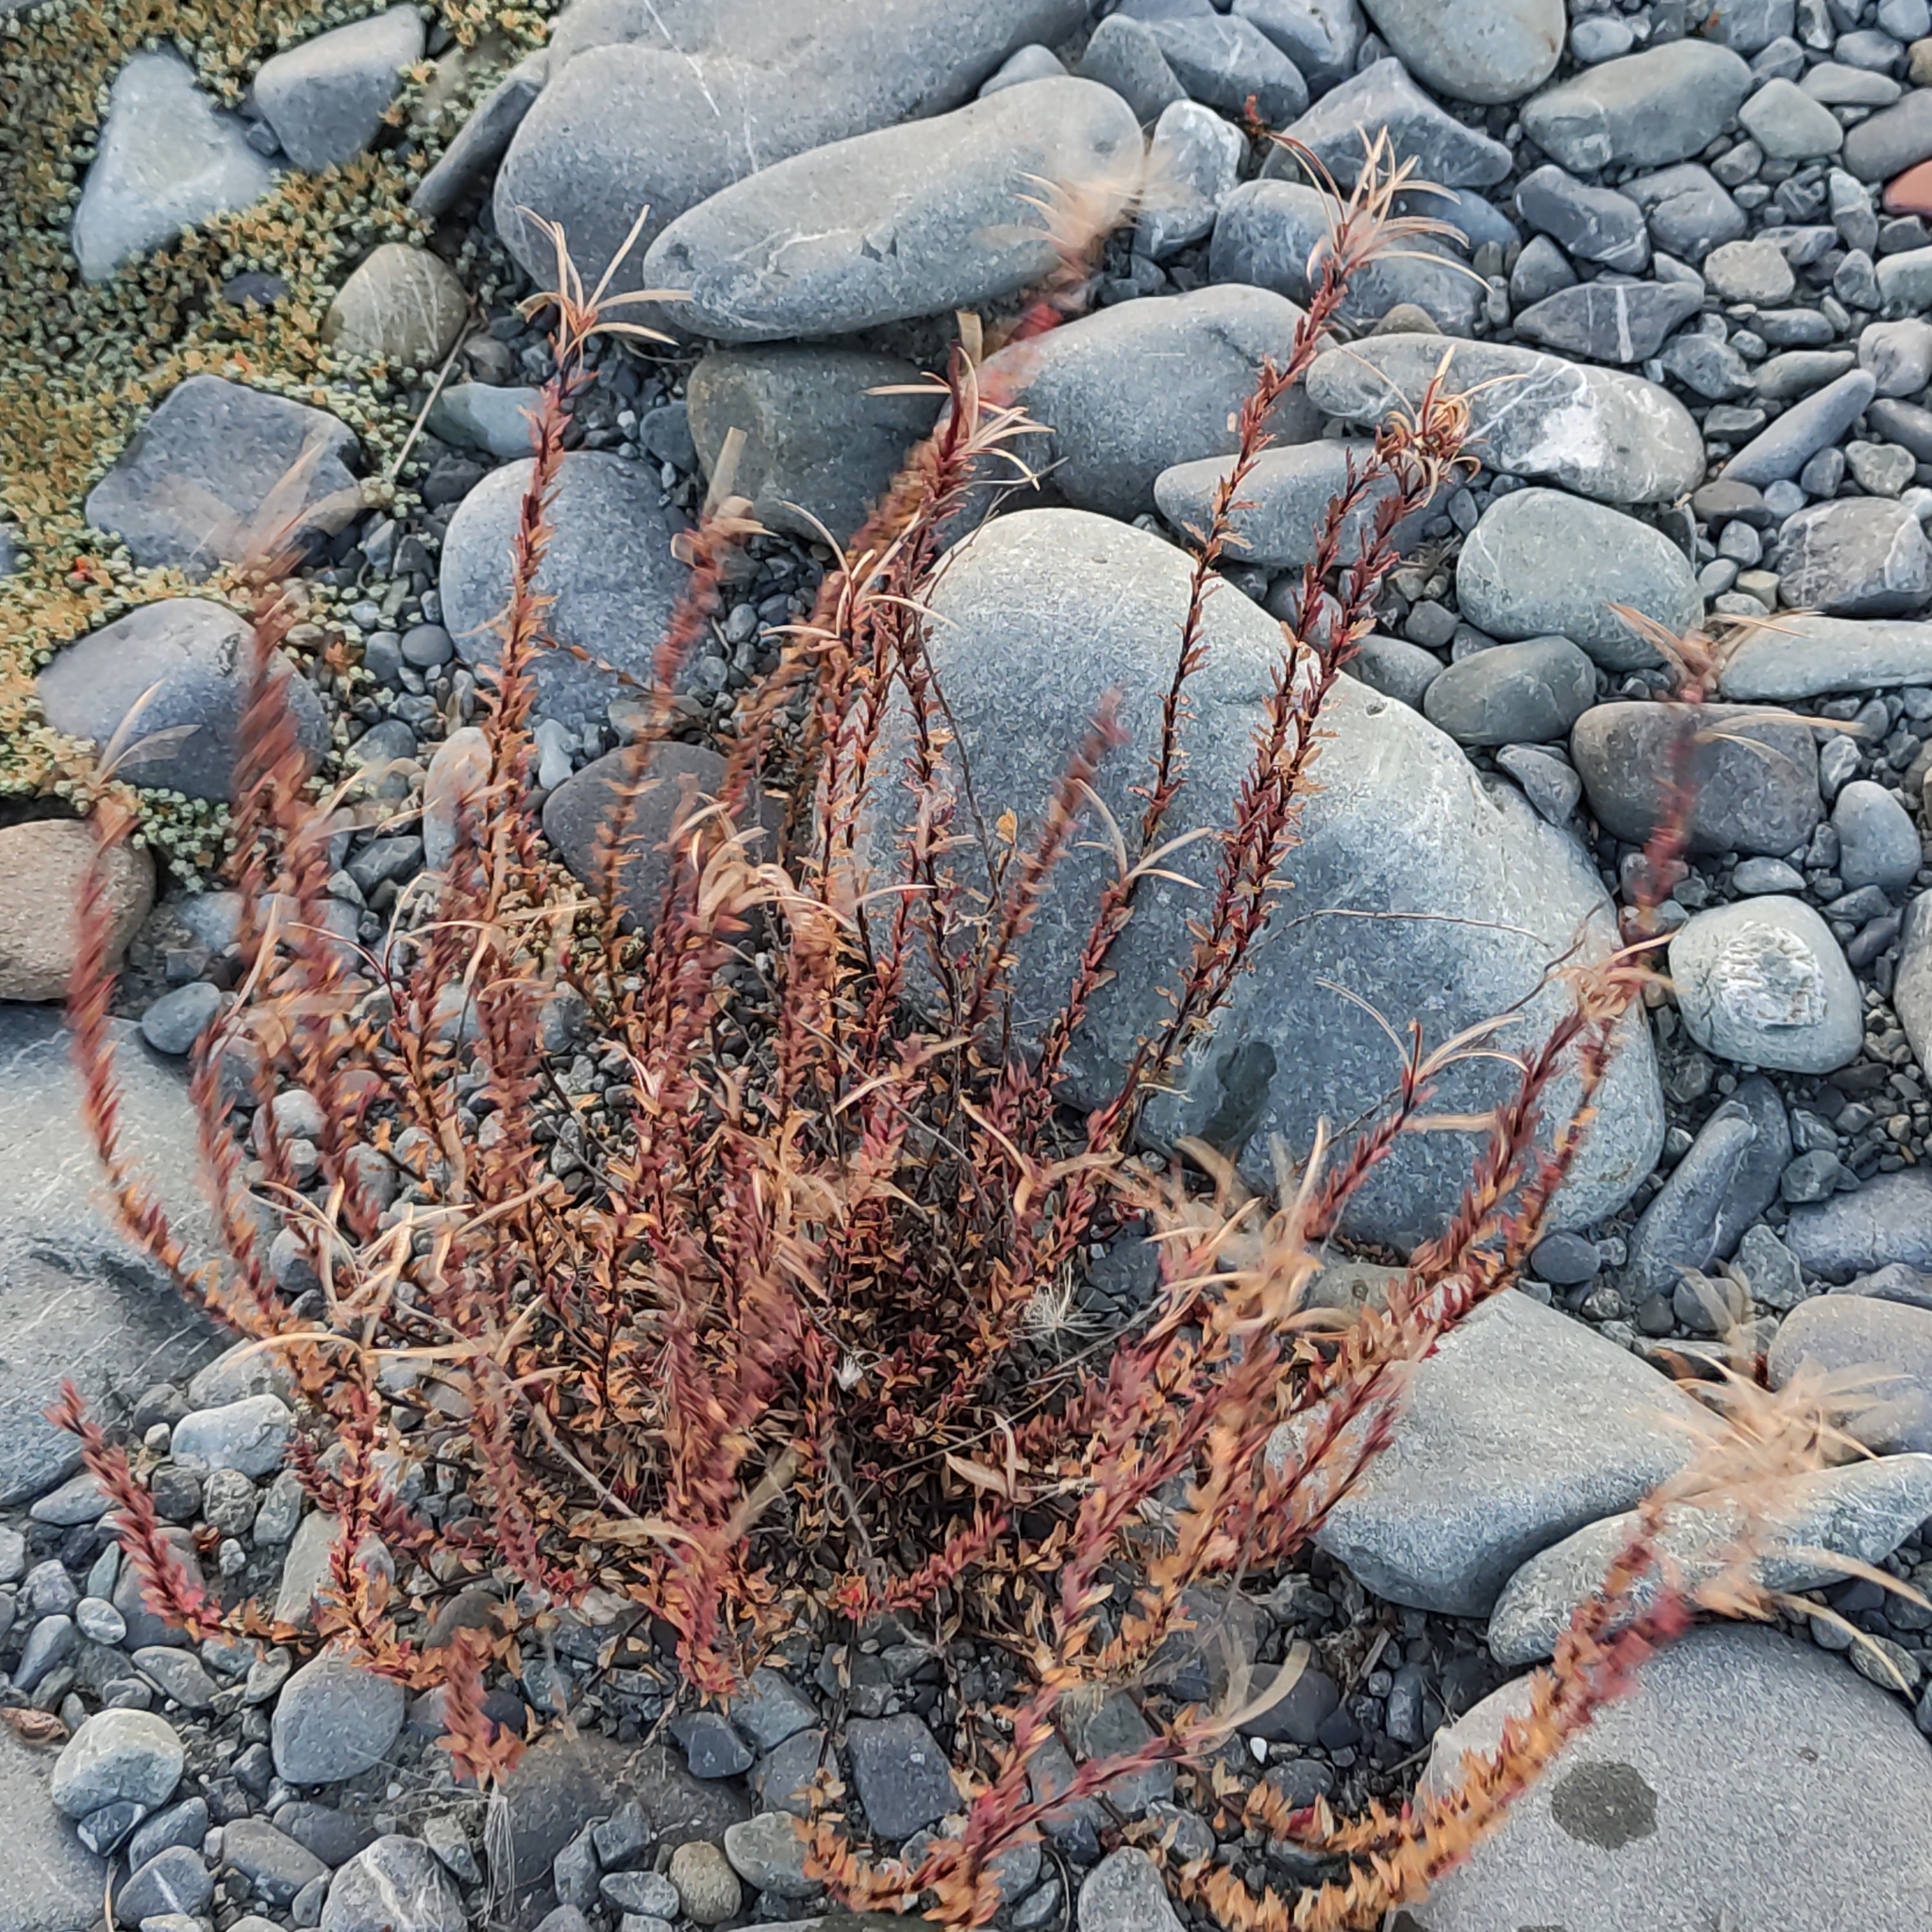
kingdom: Plantae
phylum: Tracheophyta
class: Magnoliopsida
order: Myrtales
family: Onagraceae
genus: Epilobium
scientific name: Epilobium melanocaulon
